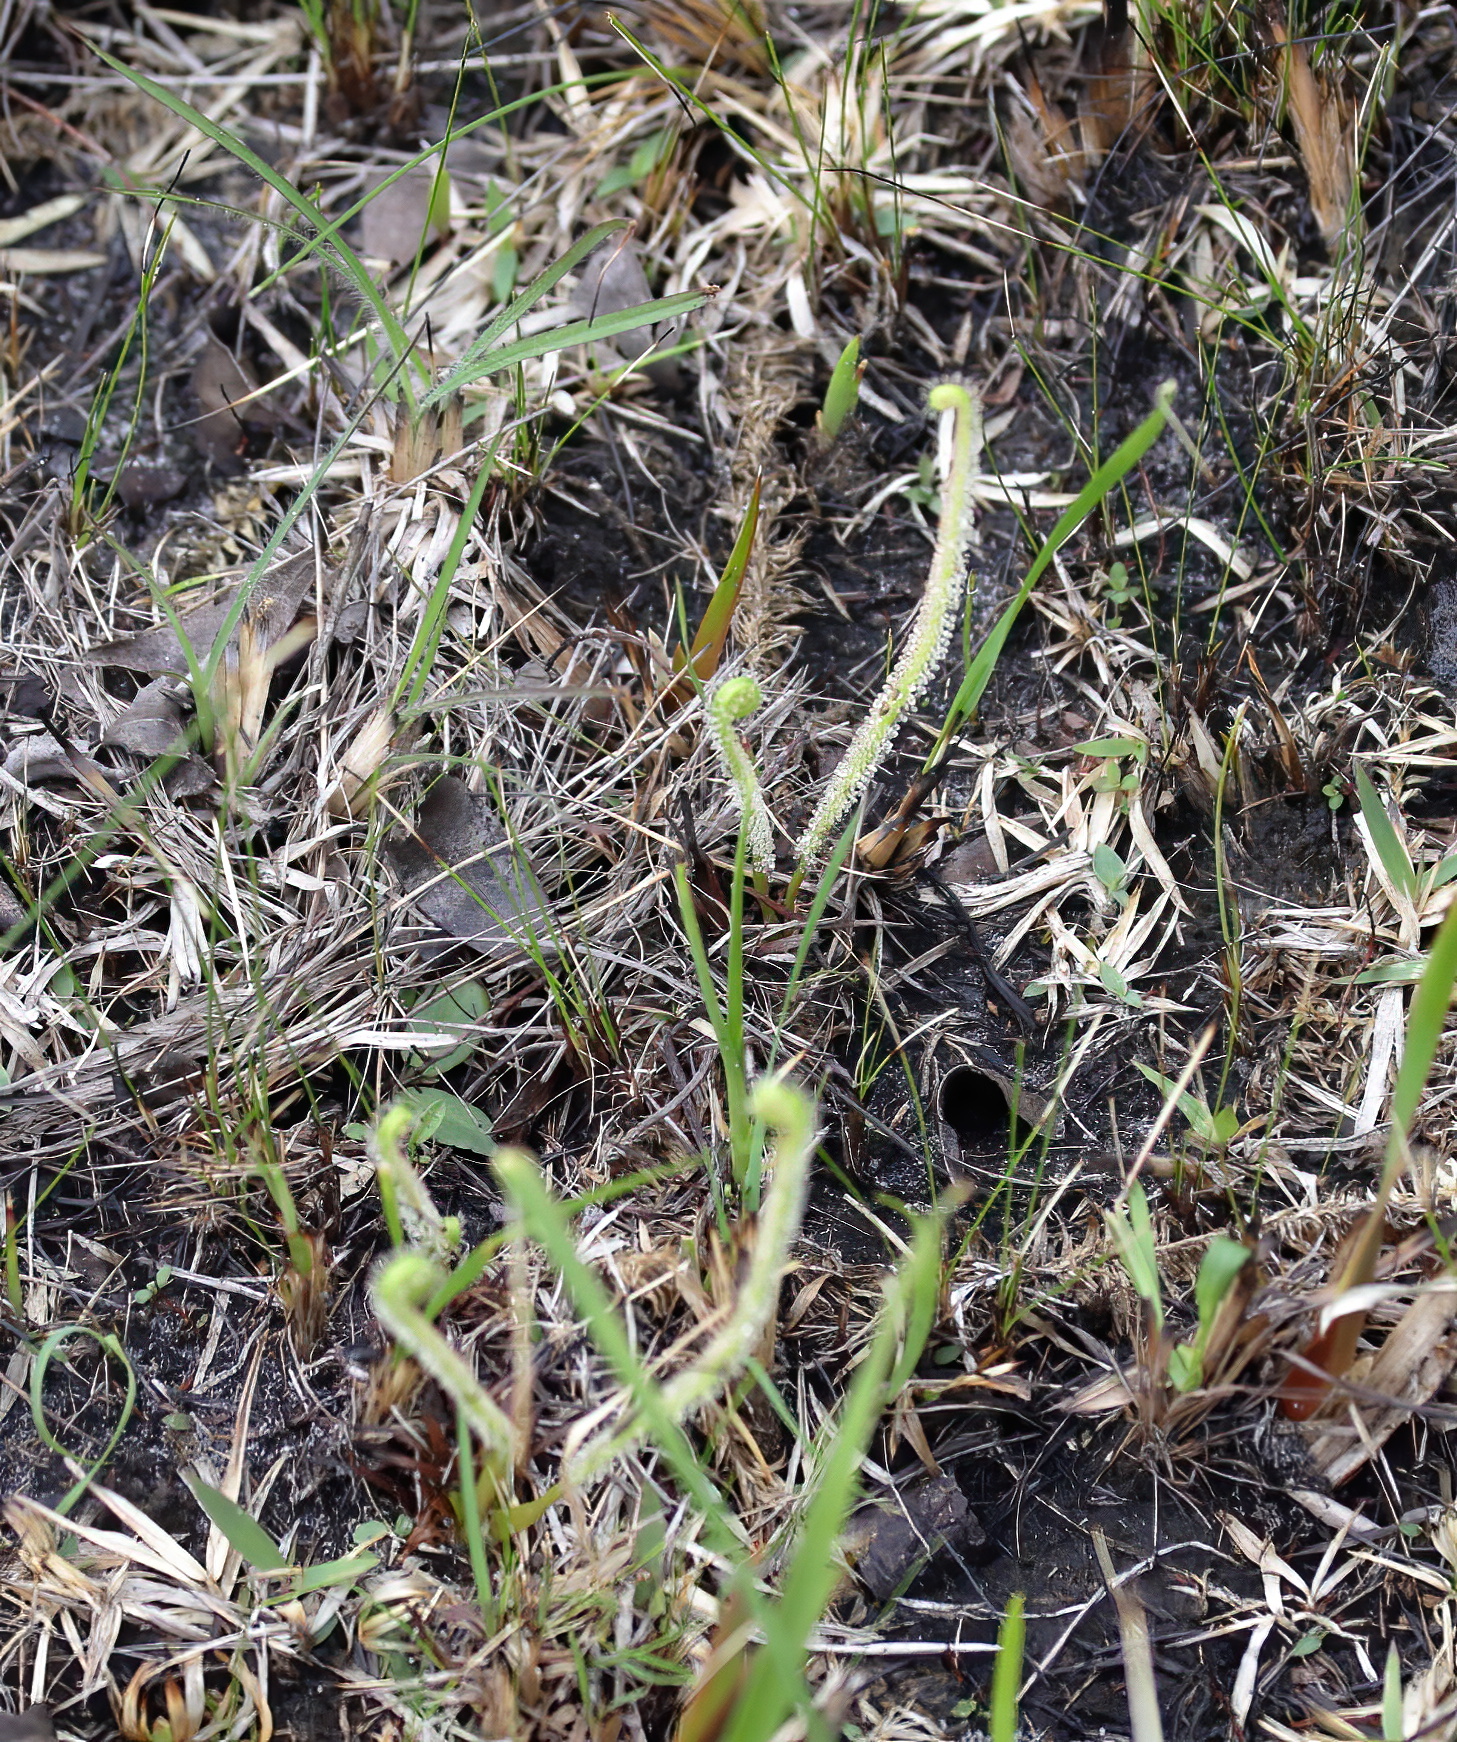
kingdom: Plantae
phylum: Tracheophyta
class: Magnoliopsida
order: Caryophyllales
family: Droseraceae
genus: Drosera
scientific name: Drosera filiformis
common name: Dew-thread
